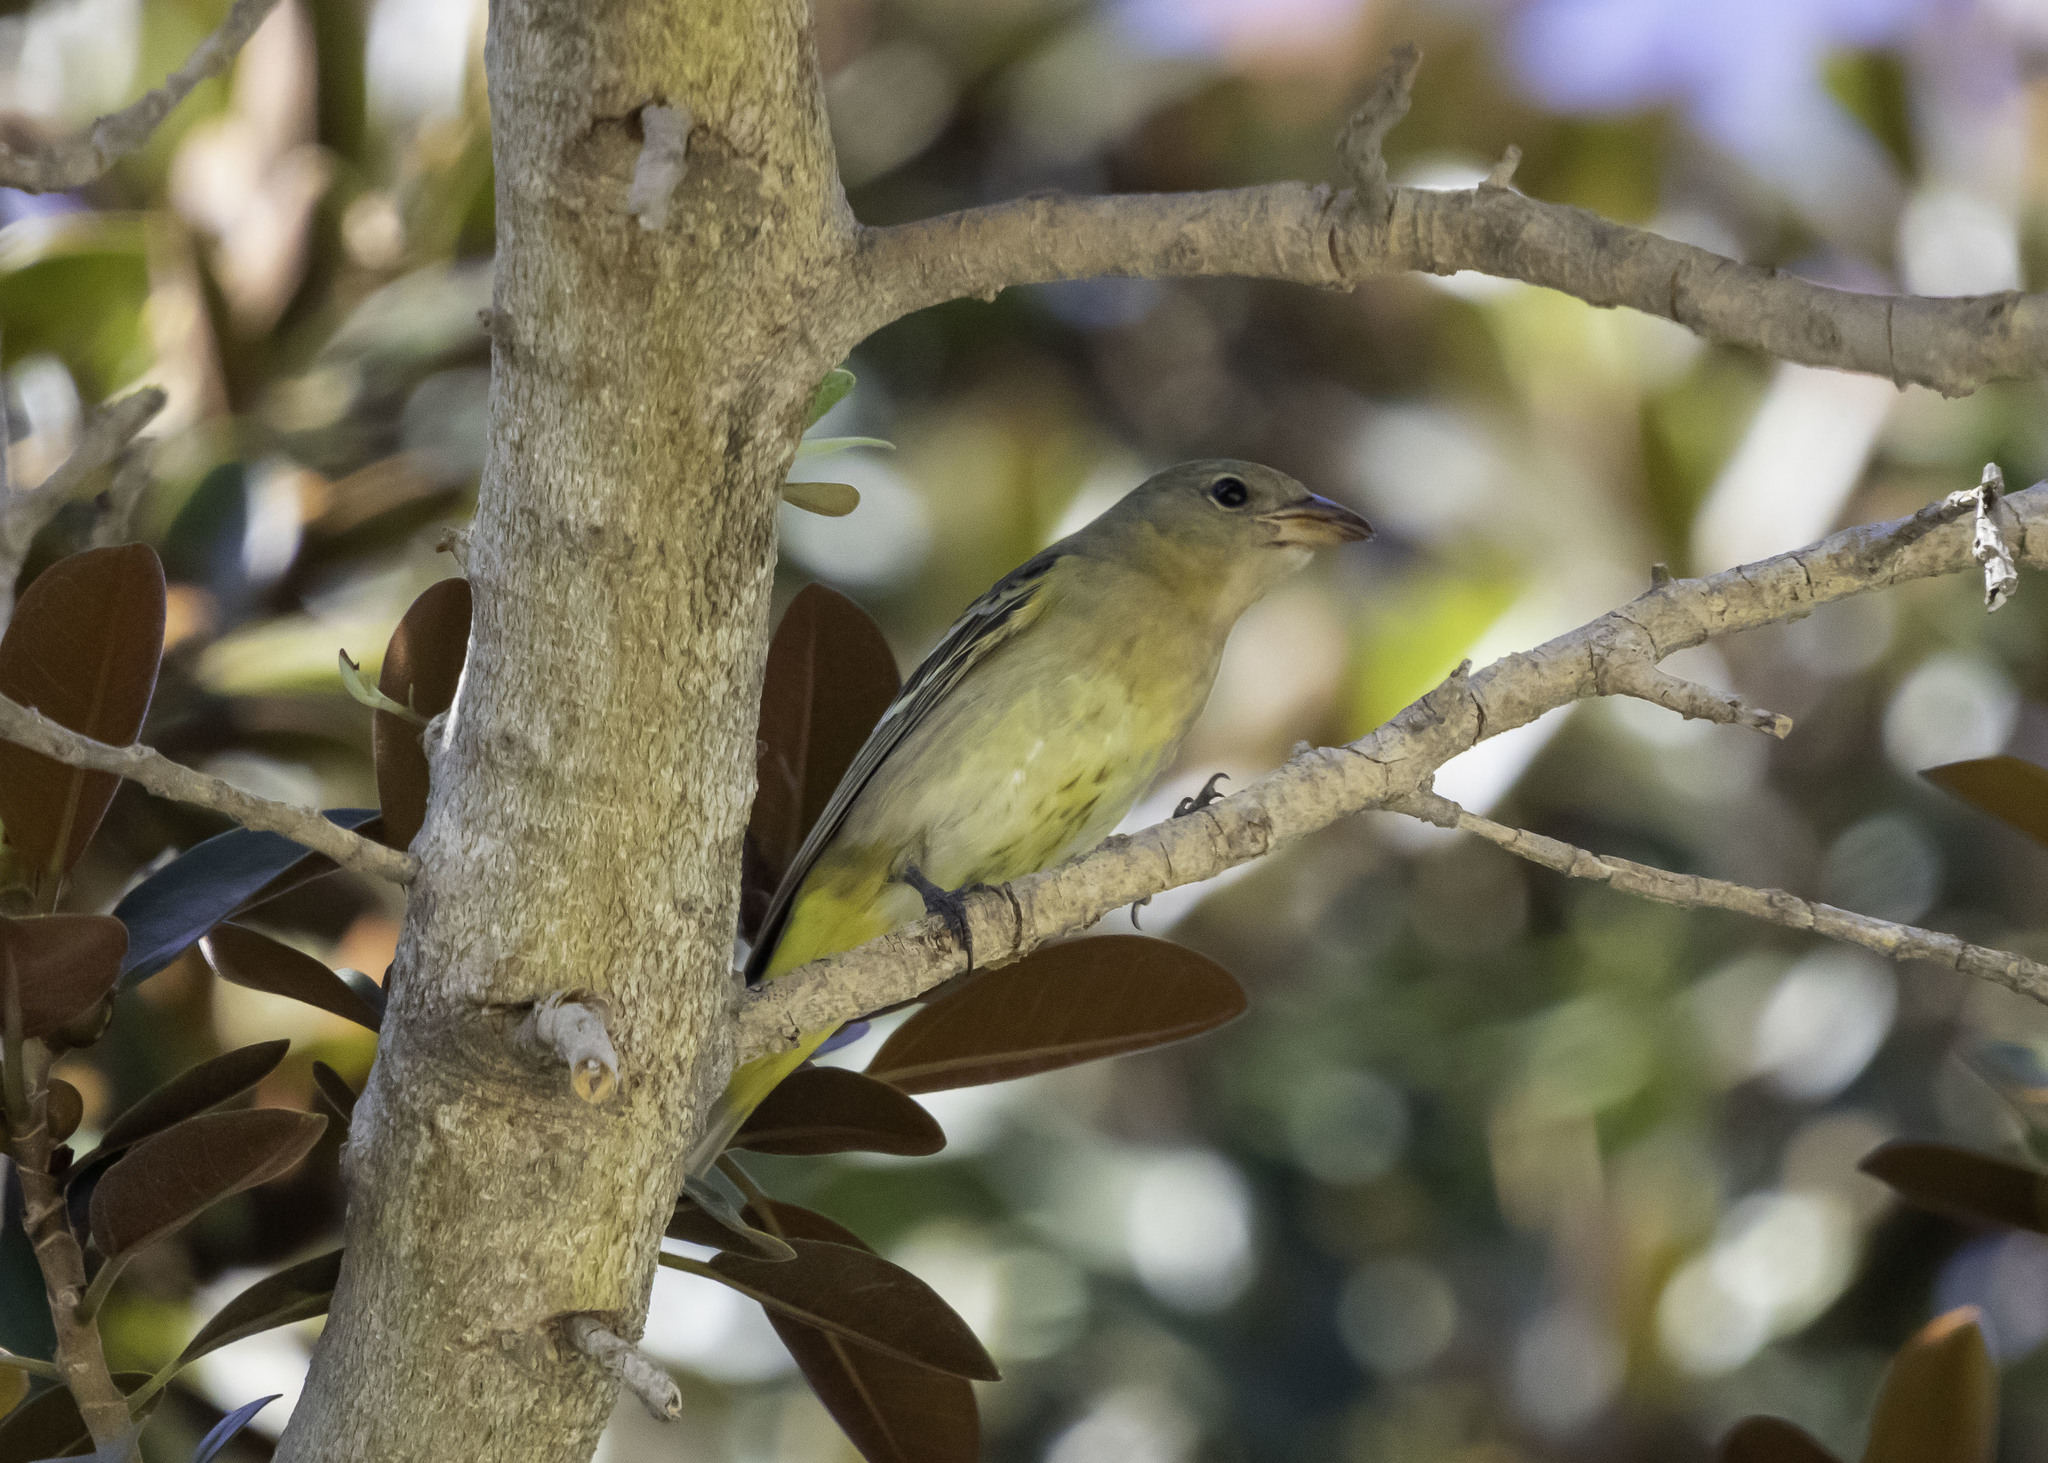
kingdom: Animalia
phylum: Chordata
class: Aves
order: Passeriformes
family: Cardinalidae
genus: Piranga
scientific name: Piranga ludoviciana
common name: Western tanager
